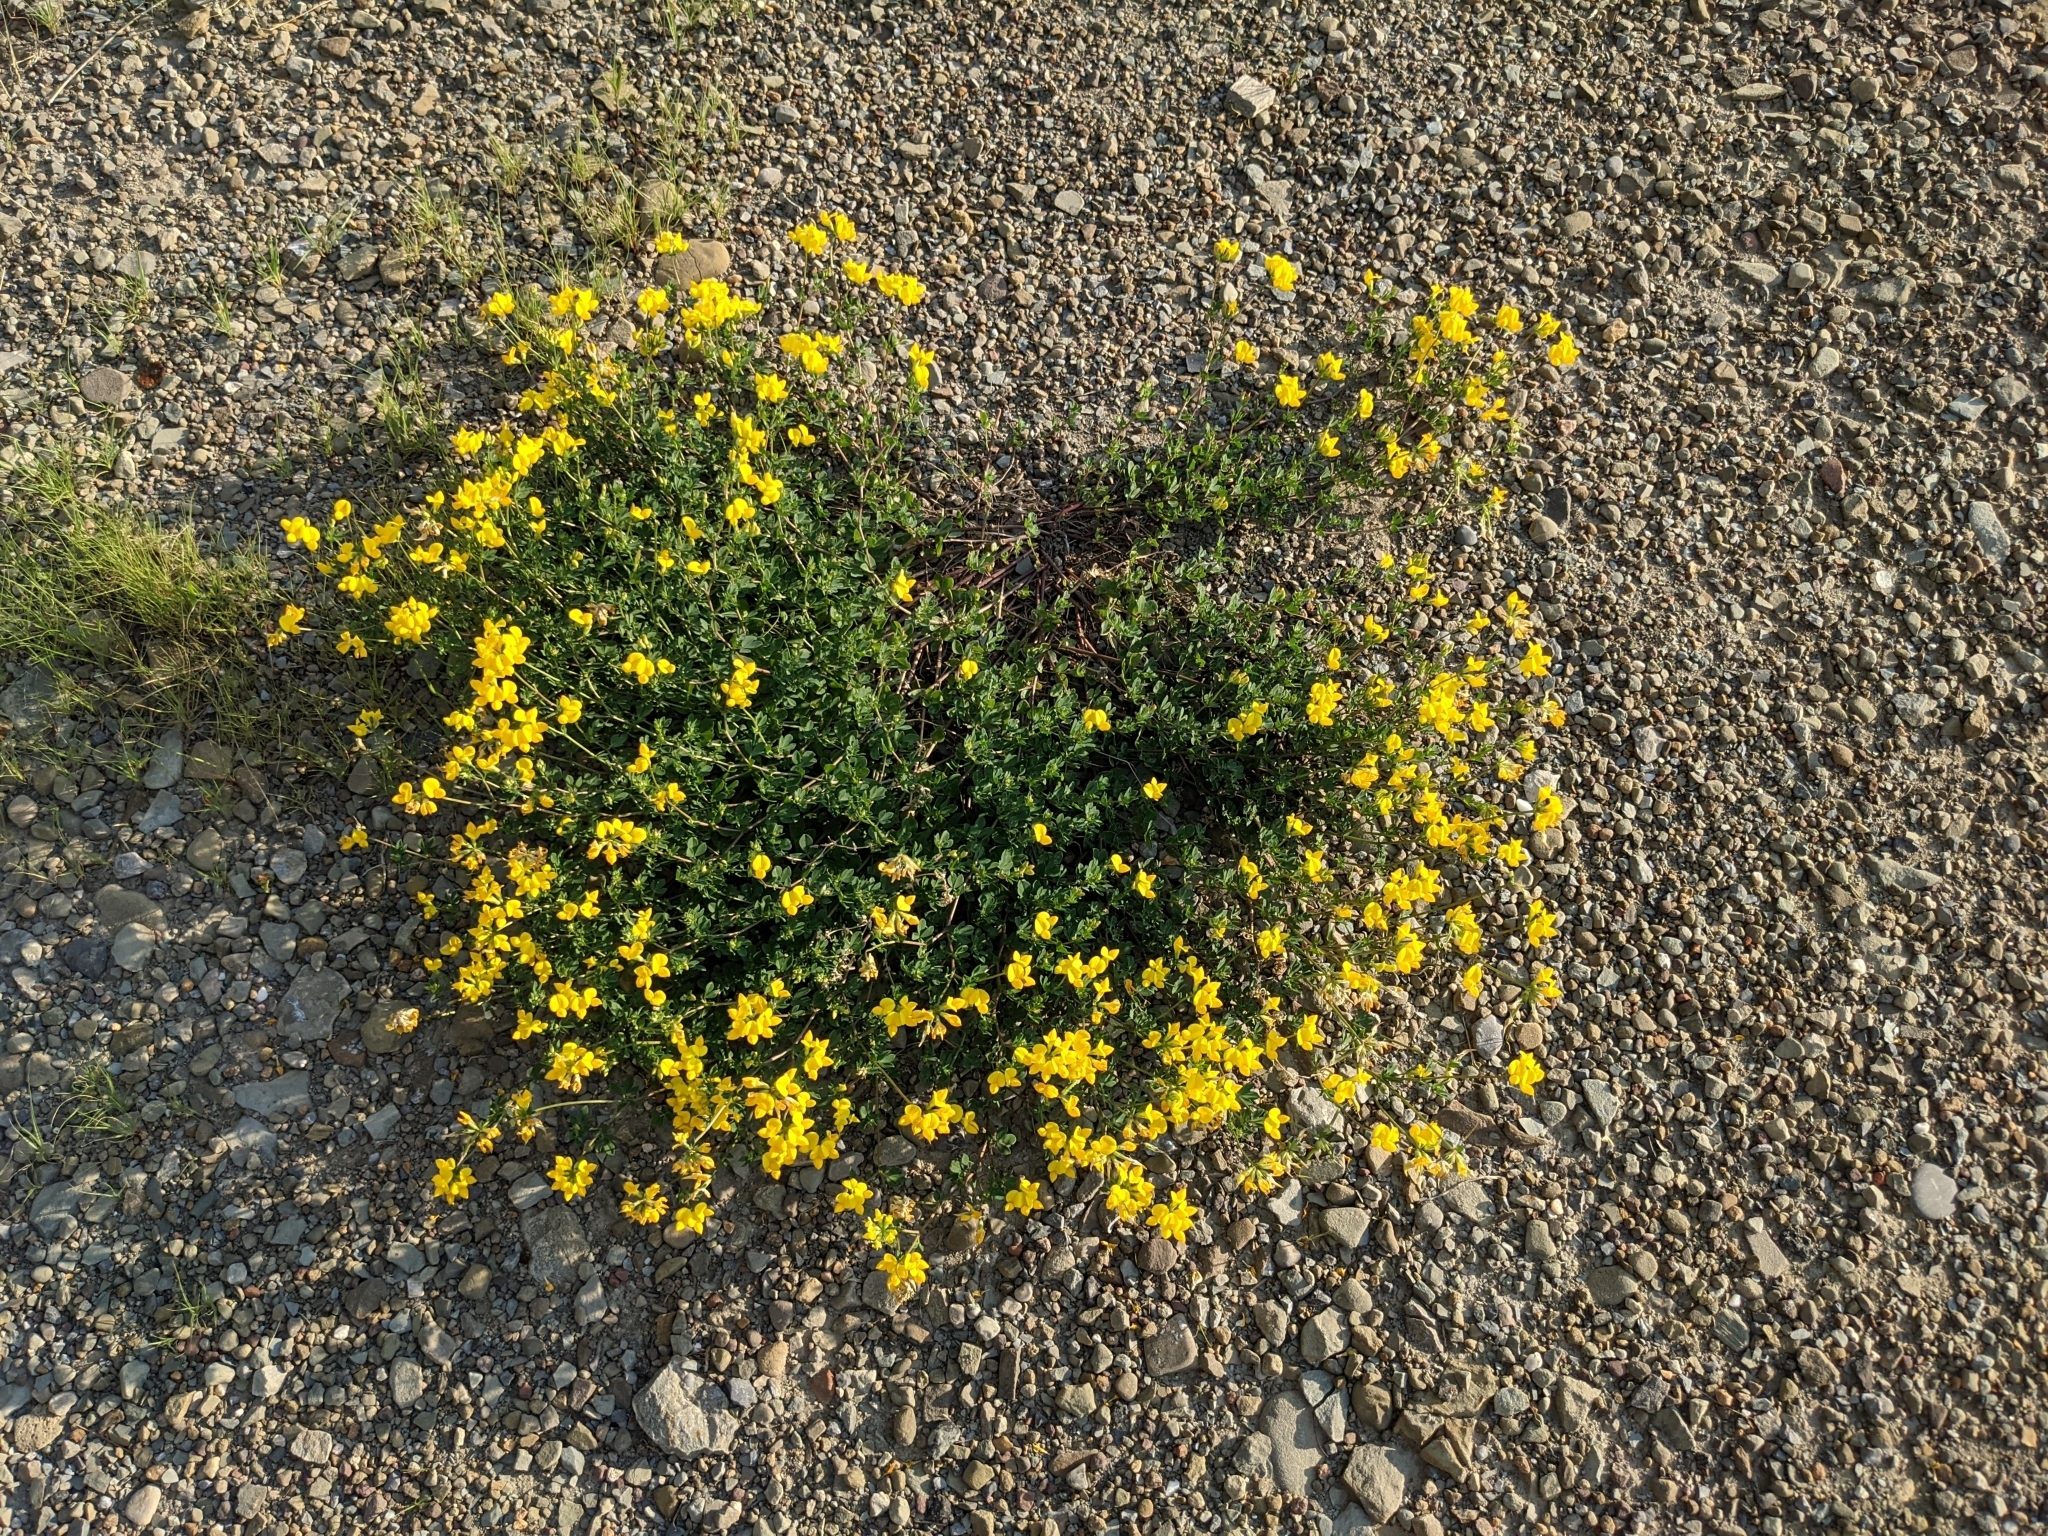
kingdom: Plantae
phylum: Tracheophyta
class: Magnoliopsida
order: Fabales
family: Fabaceae
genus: Lotus
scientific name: Lotus corniculatus
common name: Common bird's-foot-trefoil
